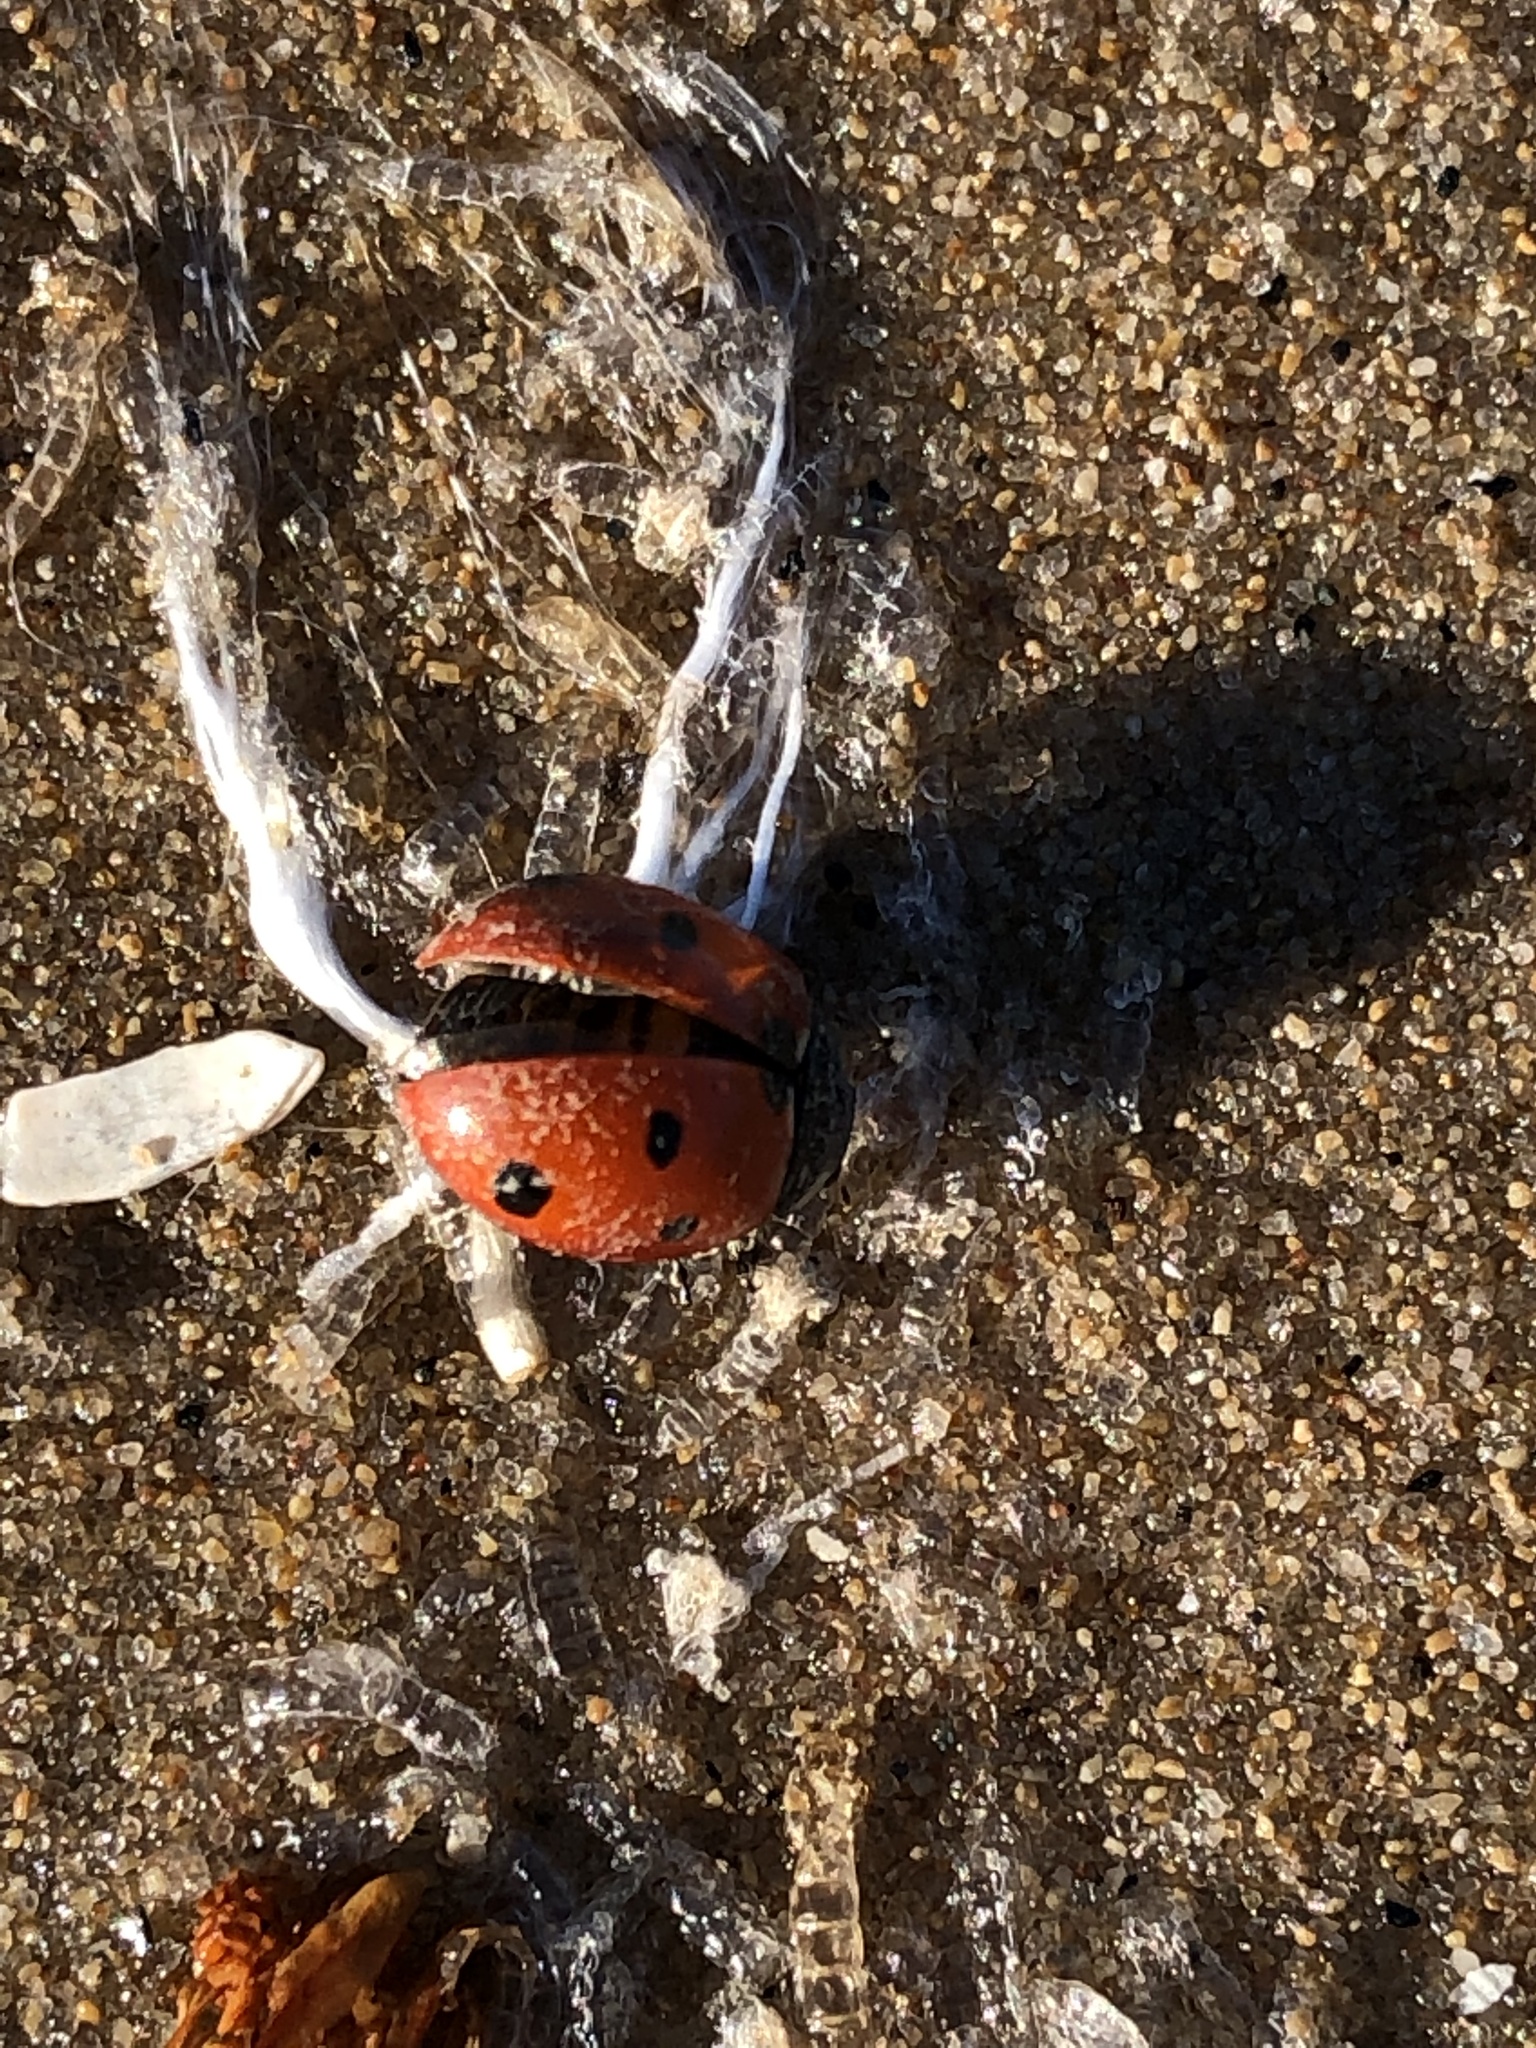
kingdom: Animalia
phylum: Arthropoda
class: Insecta
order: Coleoptera
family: Coccinellidae
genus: Coccinella
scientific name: Coccinella septempunctata
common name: Sevenspotted lady beetle
